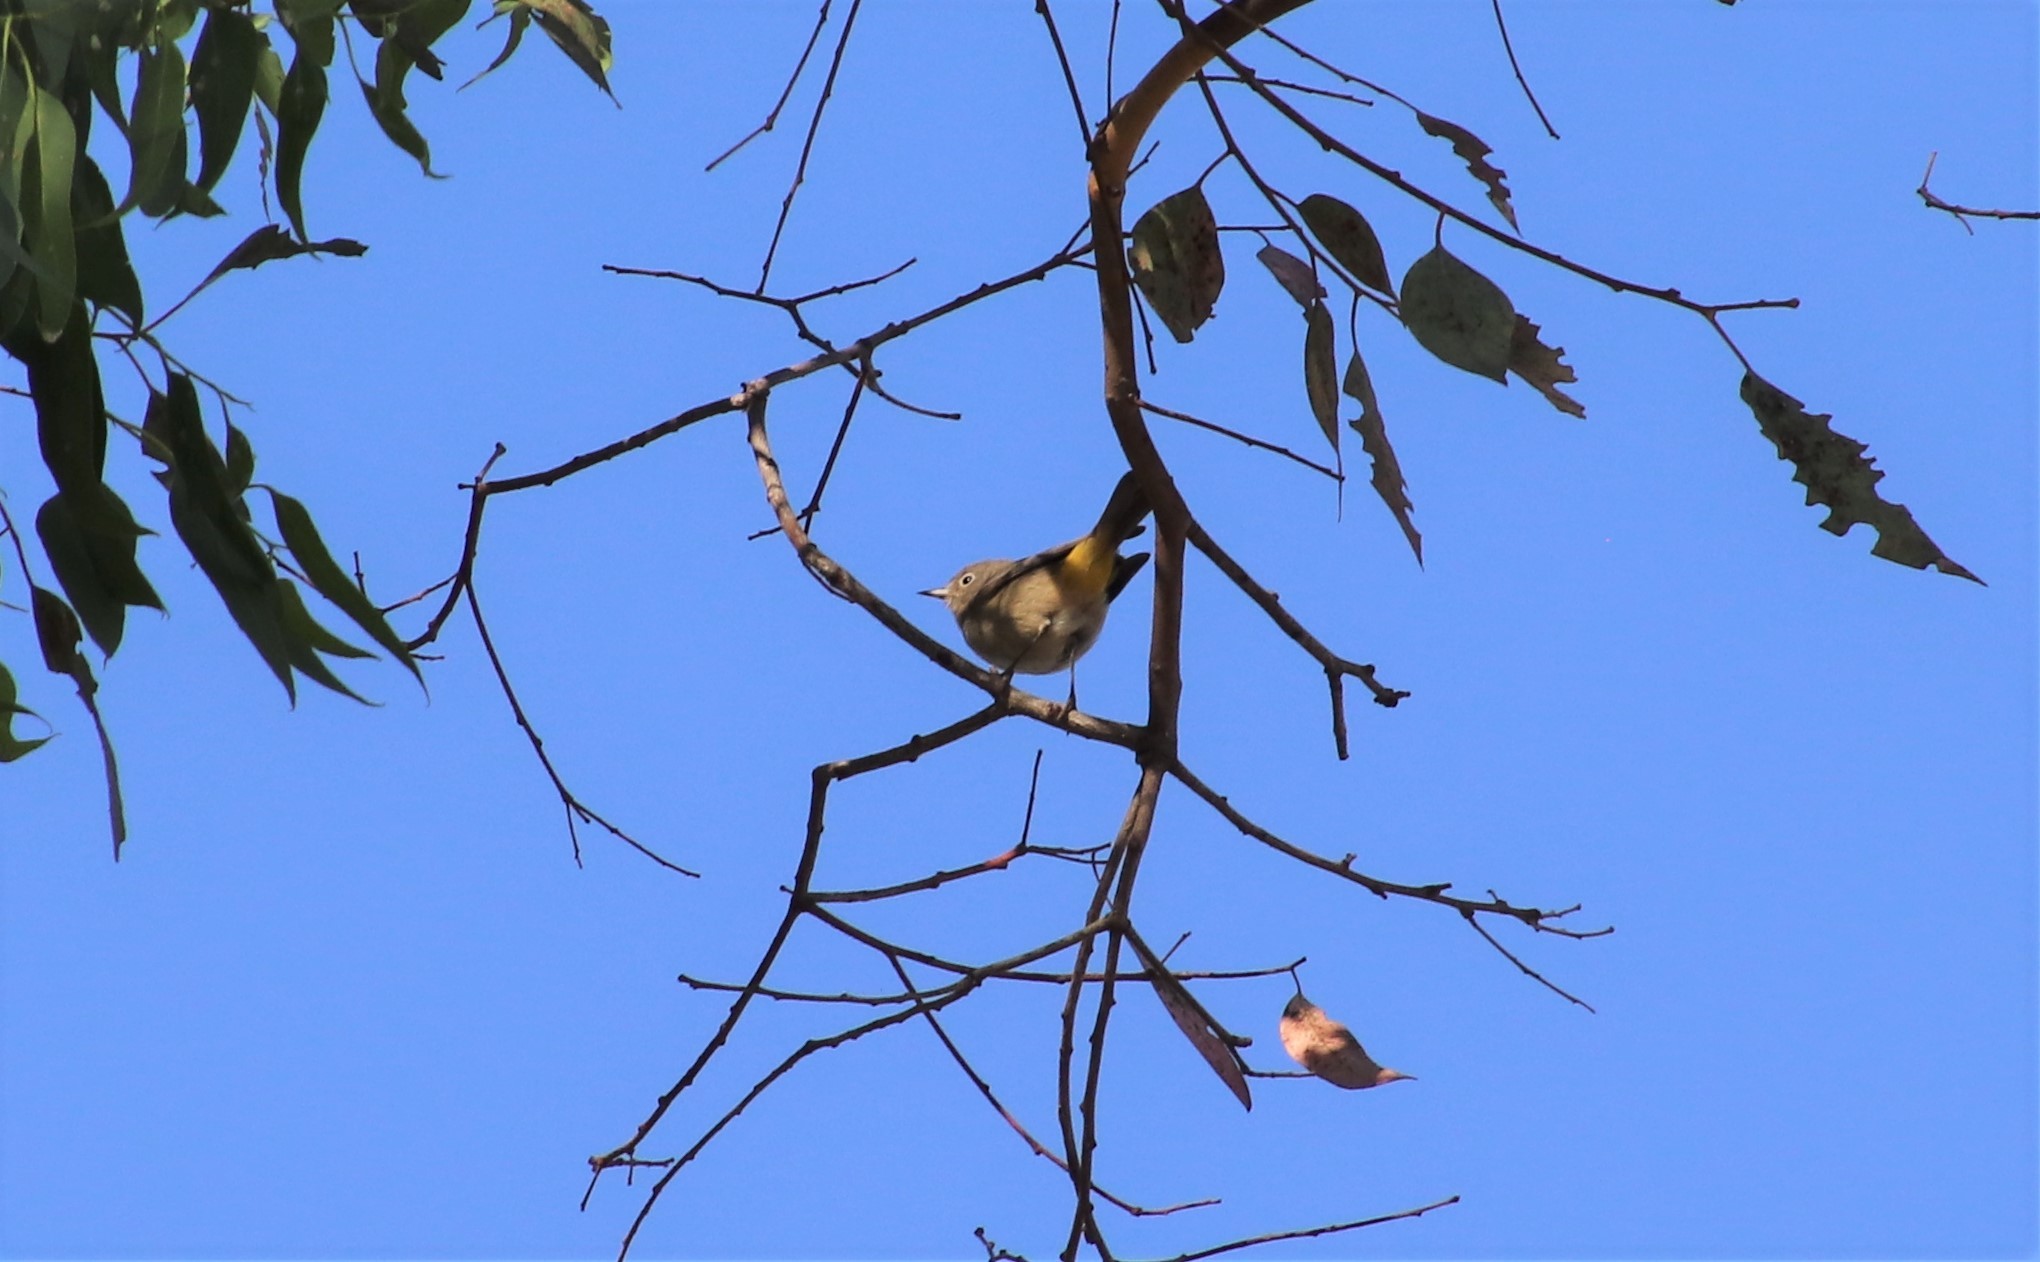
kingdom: Animalia
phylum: Chordata
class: Aves
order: Passeriformes
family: Parulidae
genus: Leiothlypis
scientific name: Leiothlypis virginiae
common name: Virginia's warbler
